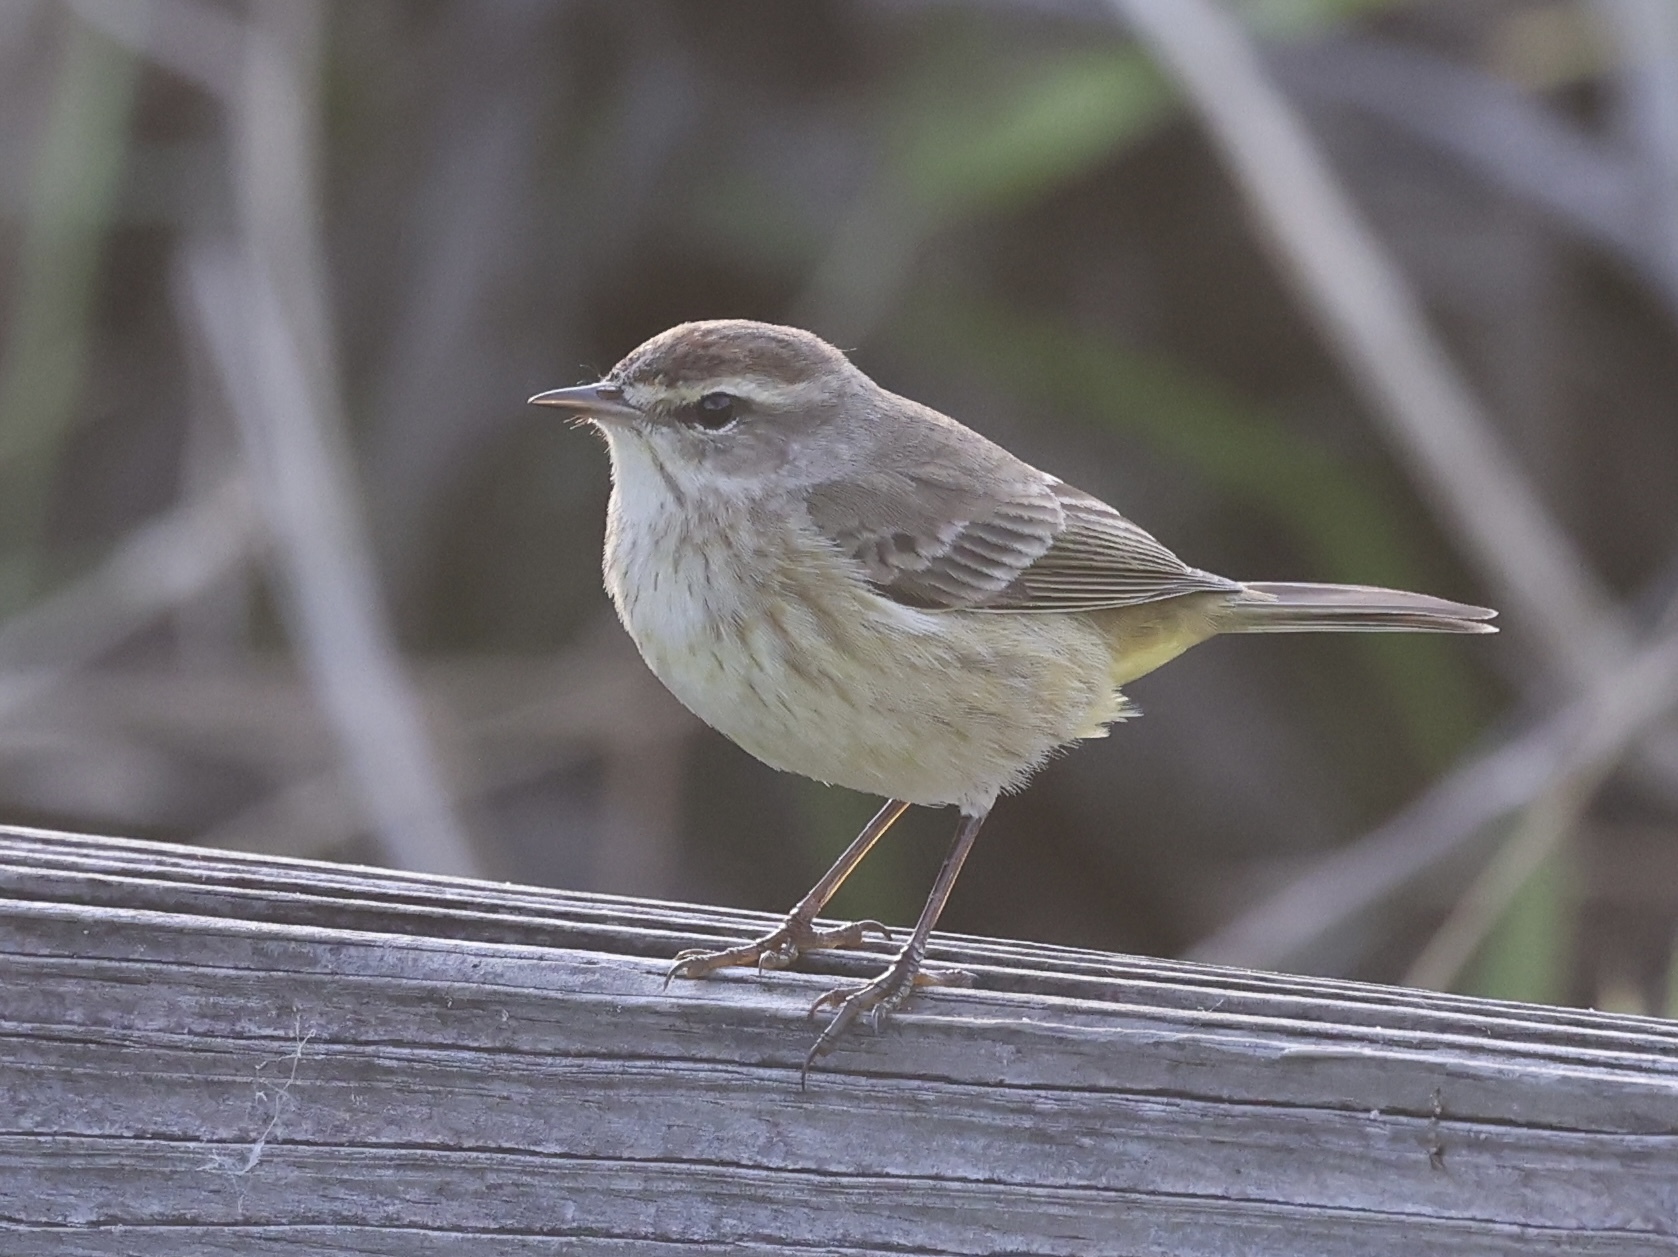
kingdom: Animalia
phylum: Chordata
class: Aves
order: Passeriformes
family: Parulidae
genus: Setophaga
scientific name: Setophaga palmarum
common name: Palm warbler
